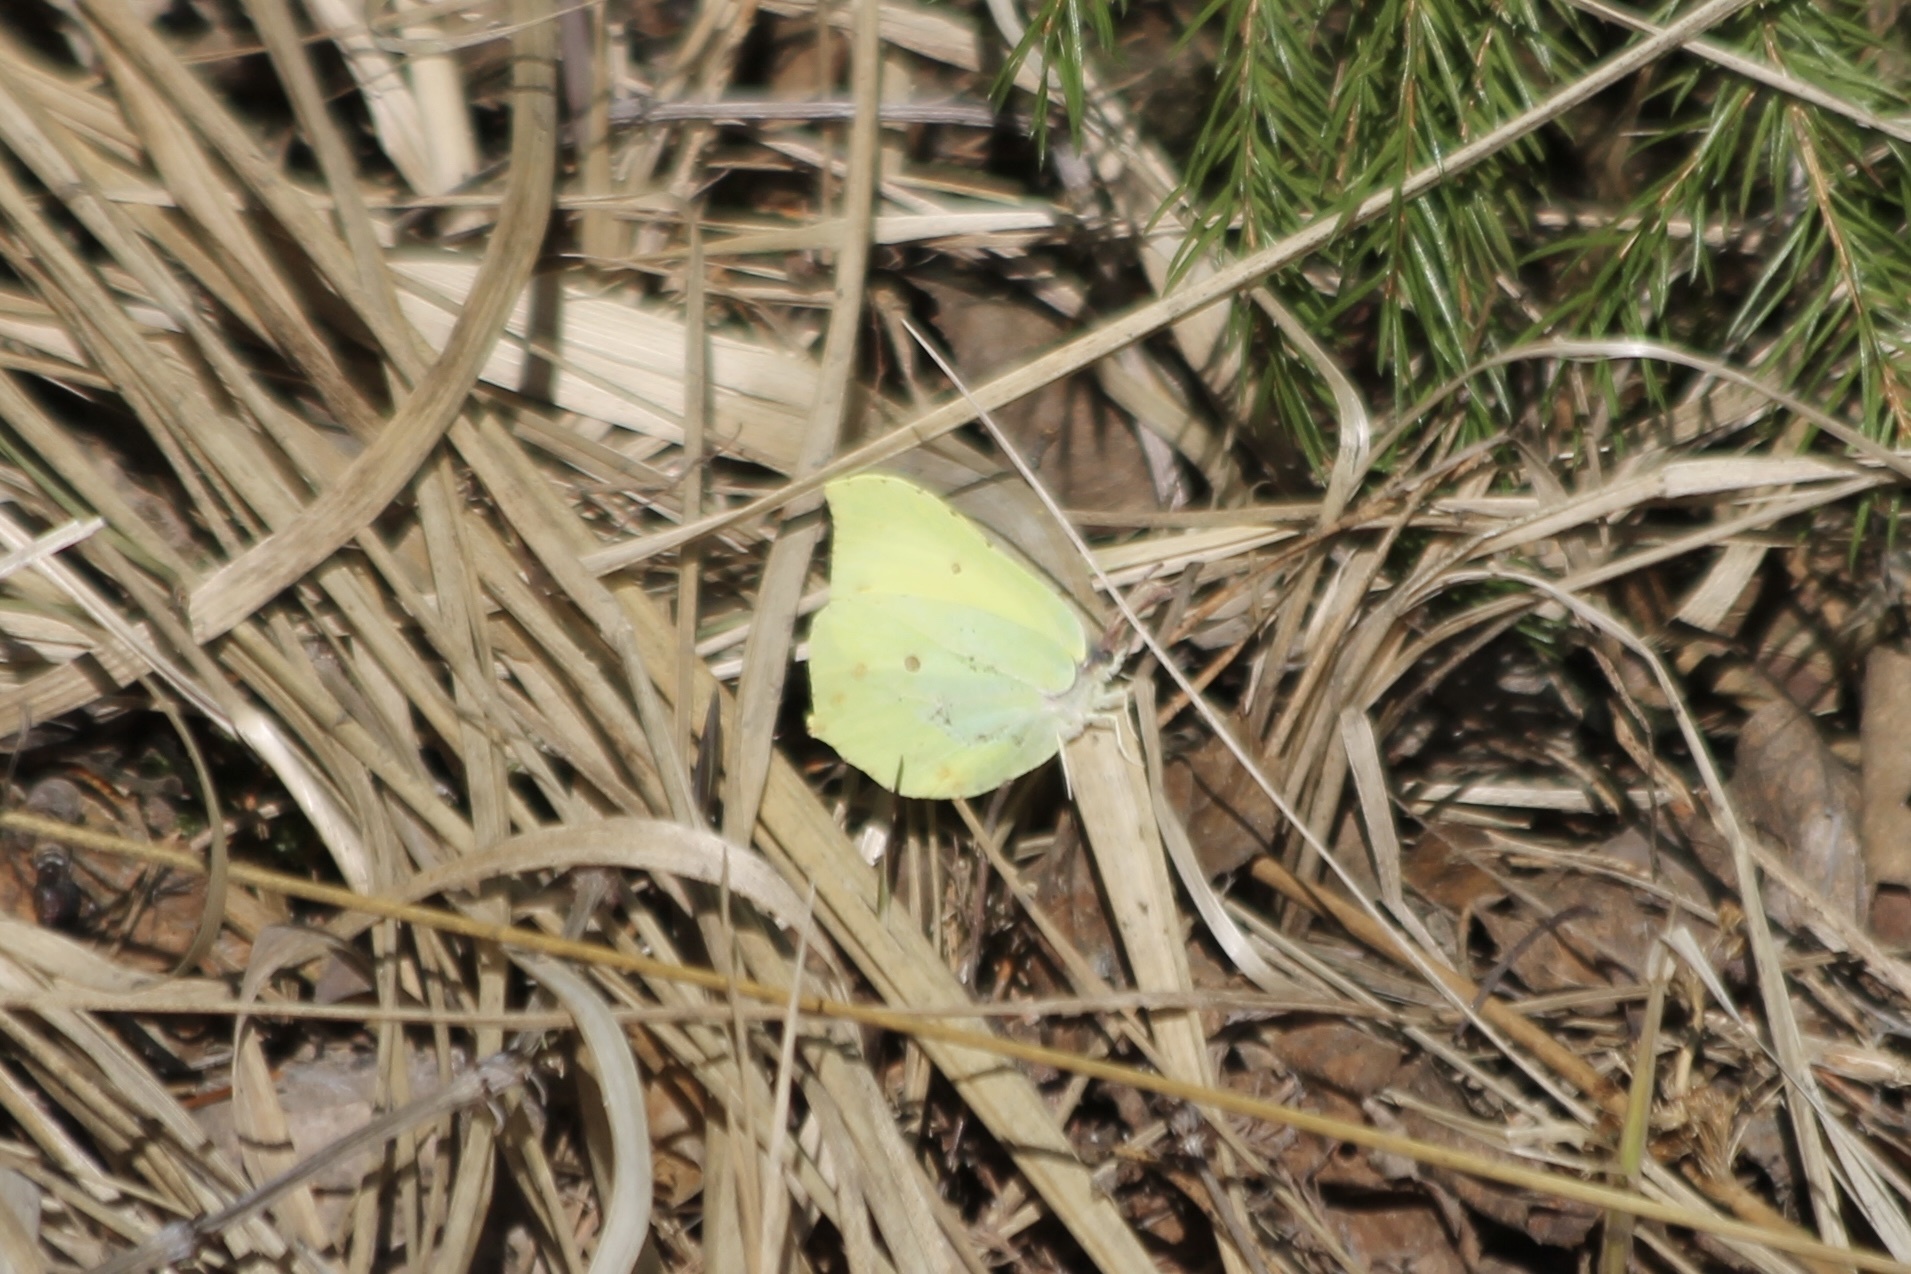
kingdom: Animalia
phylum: Arthropoda
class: Insecta
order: Lepidoptera
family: Pieridae
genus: Gonepteryx
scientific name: Gonepteryx rhamni
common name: Brimstone
